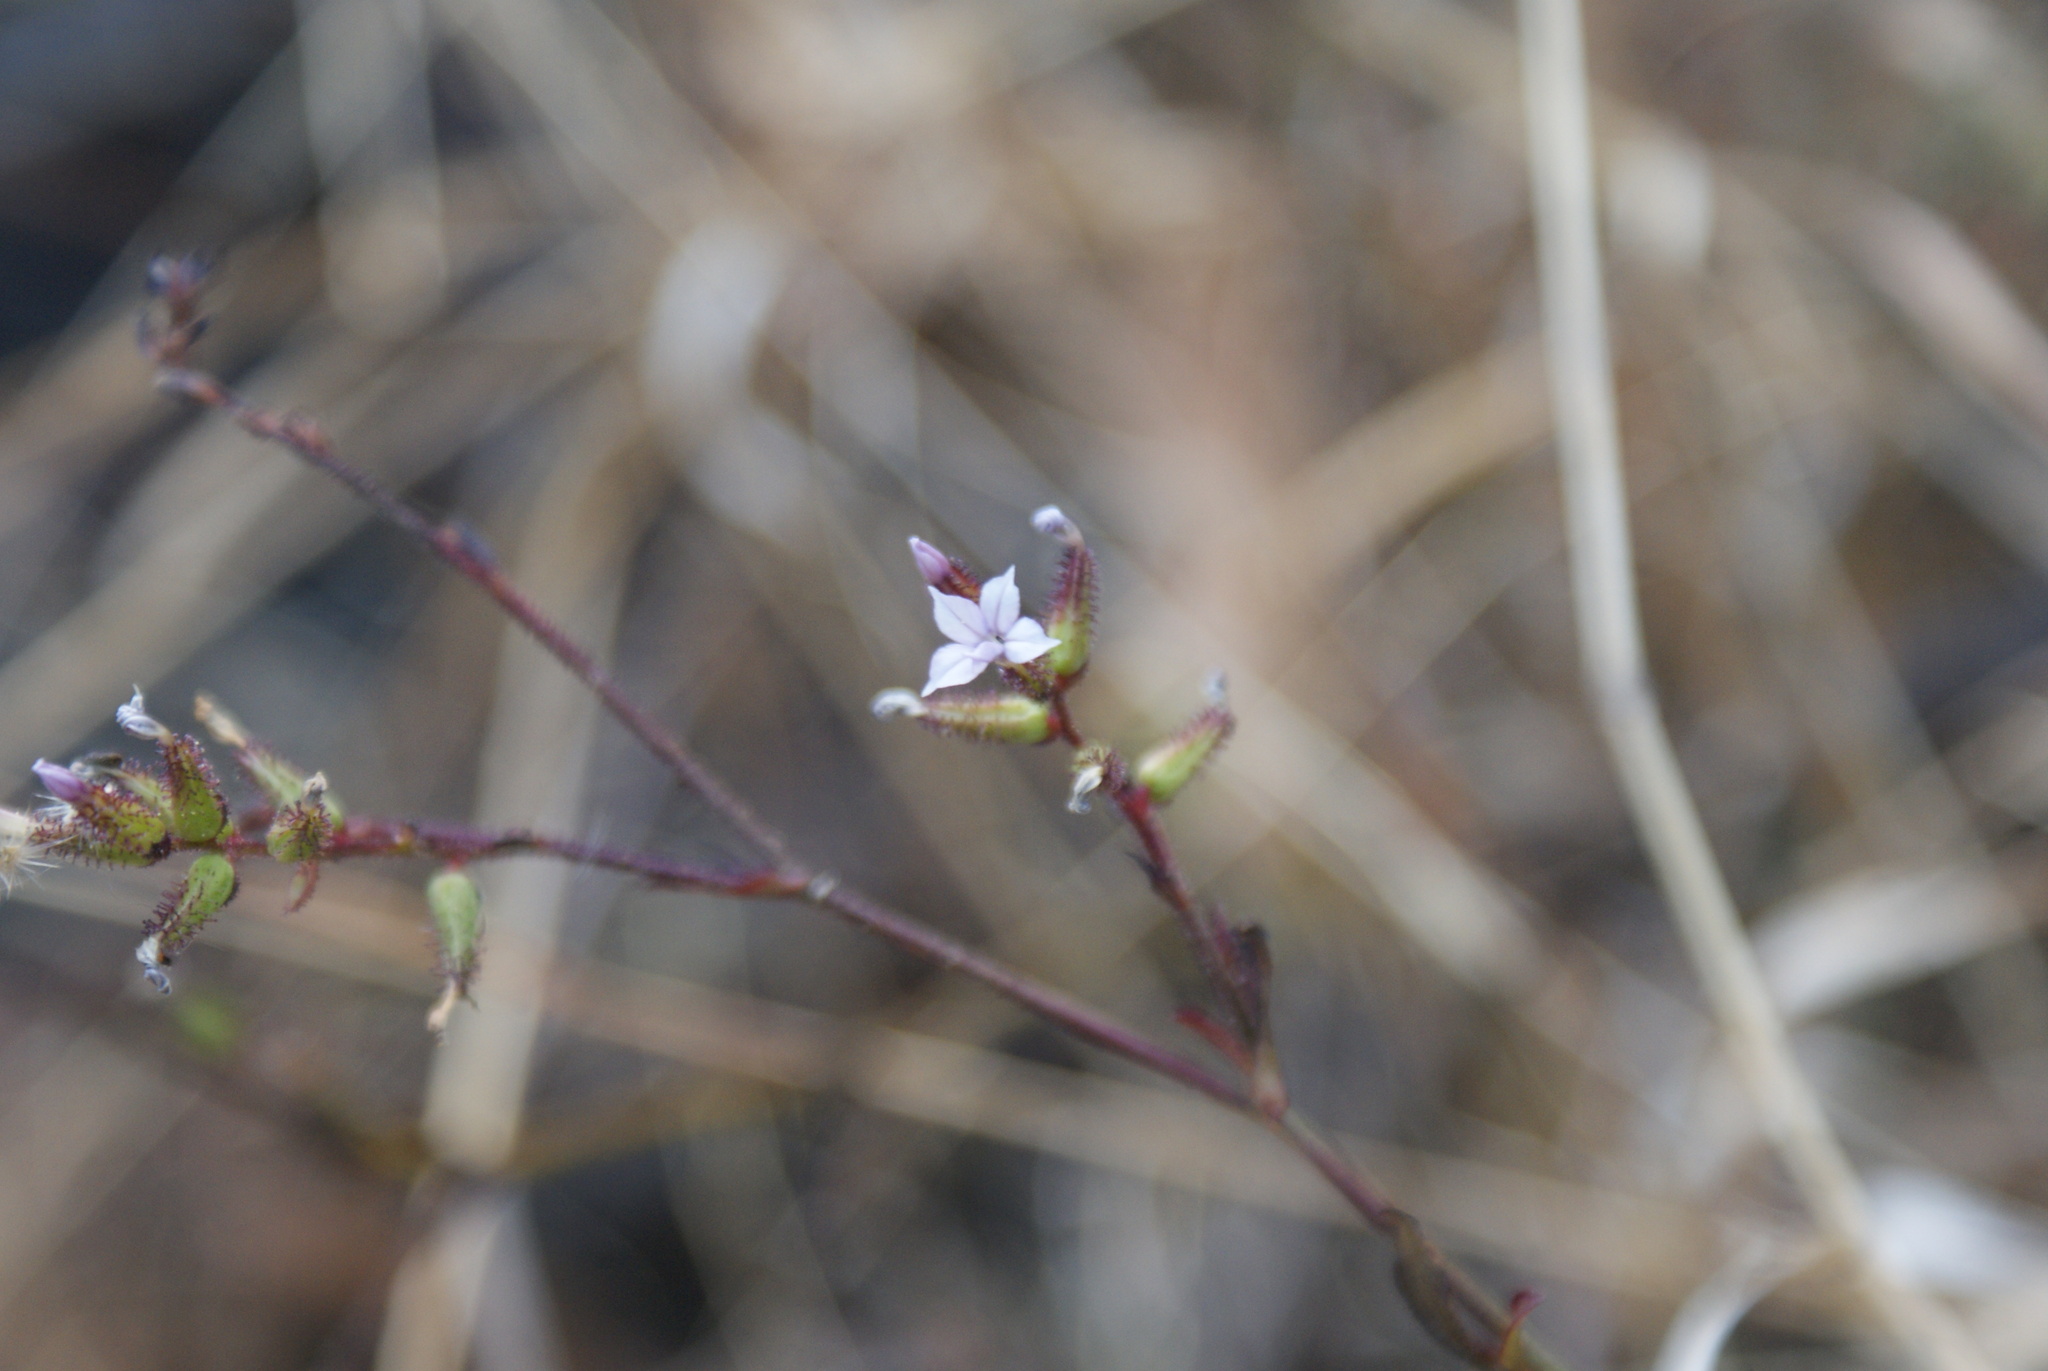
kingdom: Plantae
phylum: Tracheophyta
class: Magnoliopsida
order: Caryophyllales
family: Plumbaginaceae
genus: Plumbago
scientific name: Plumbago pulchella
